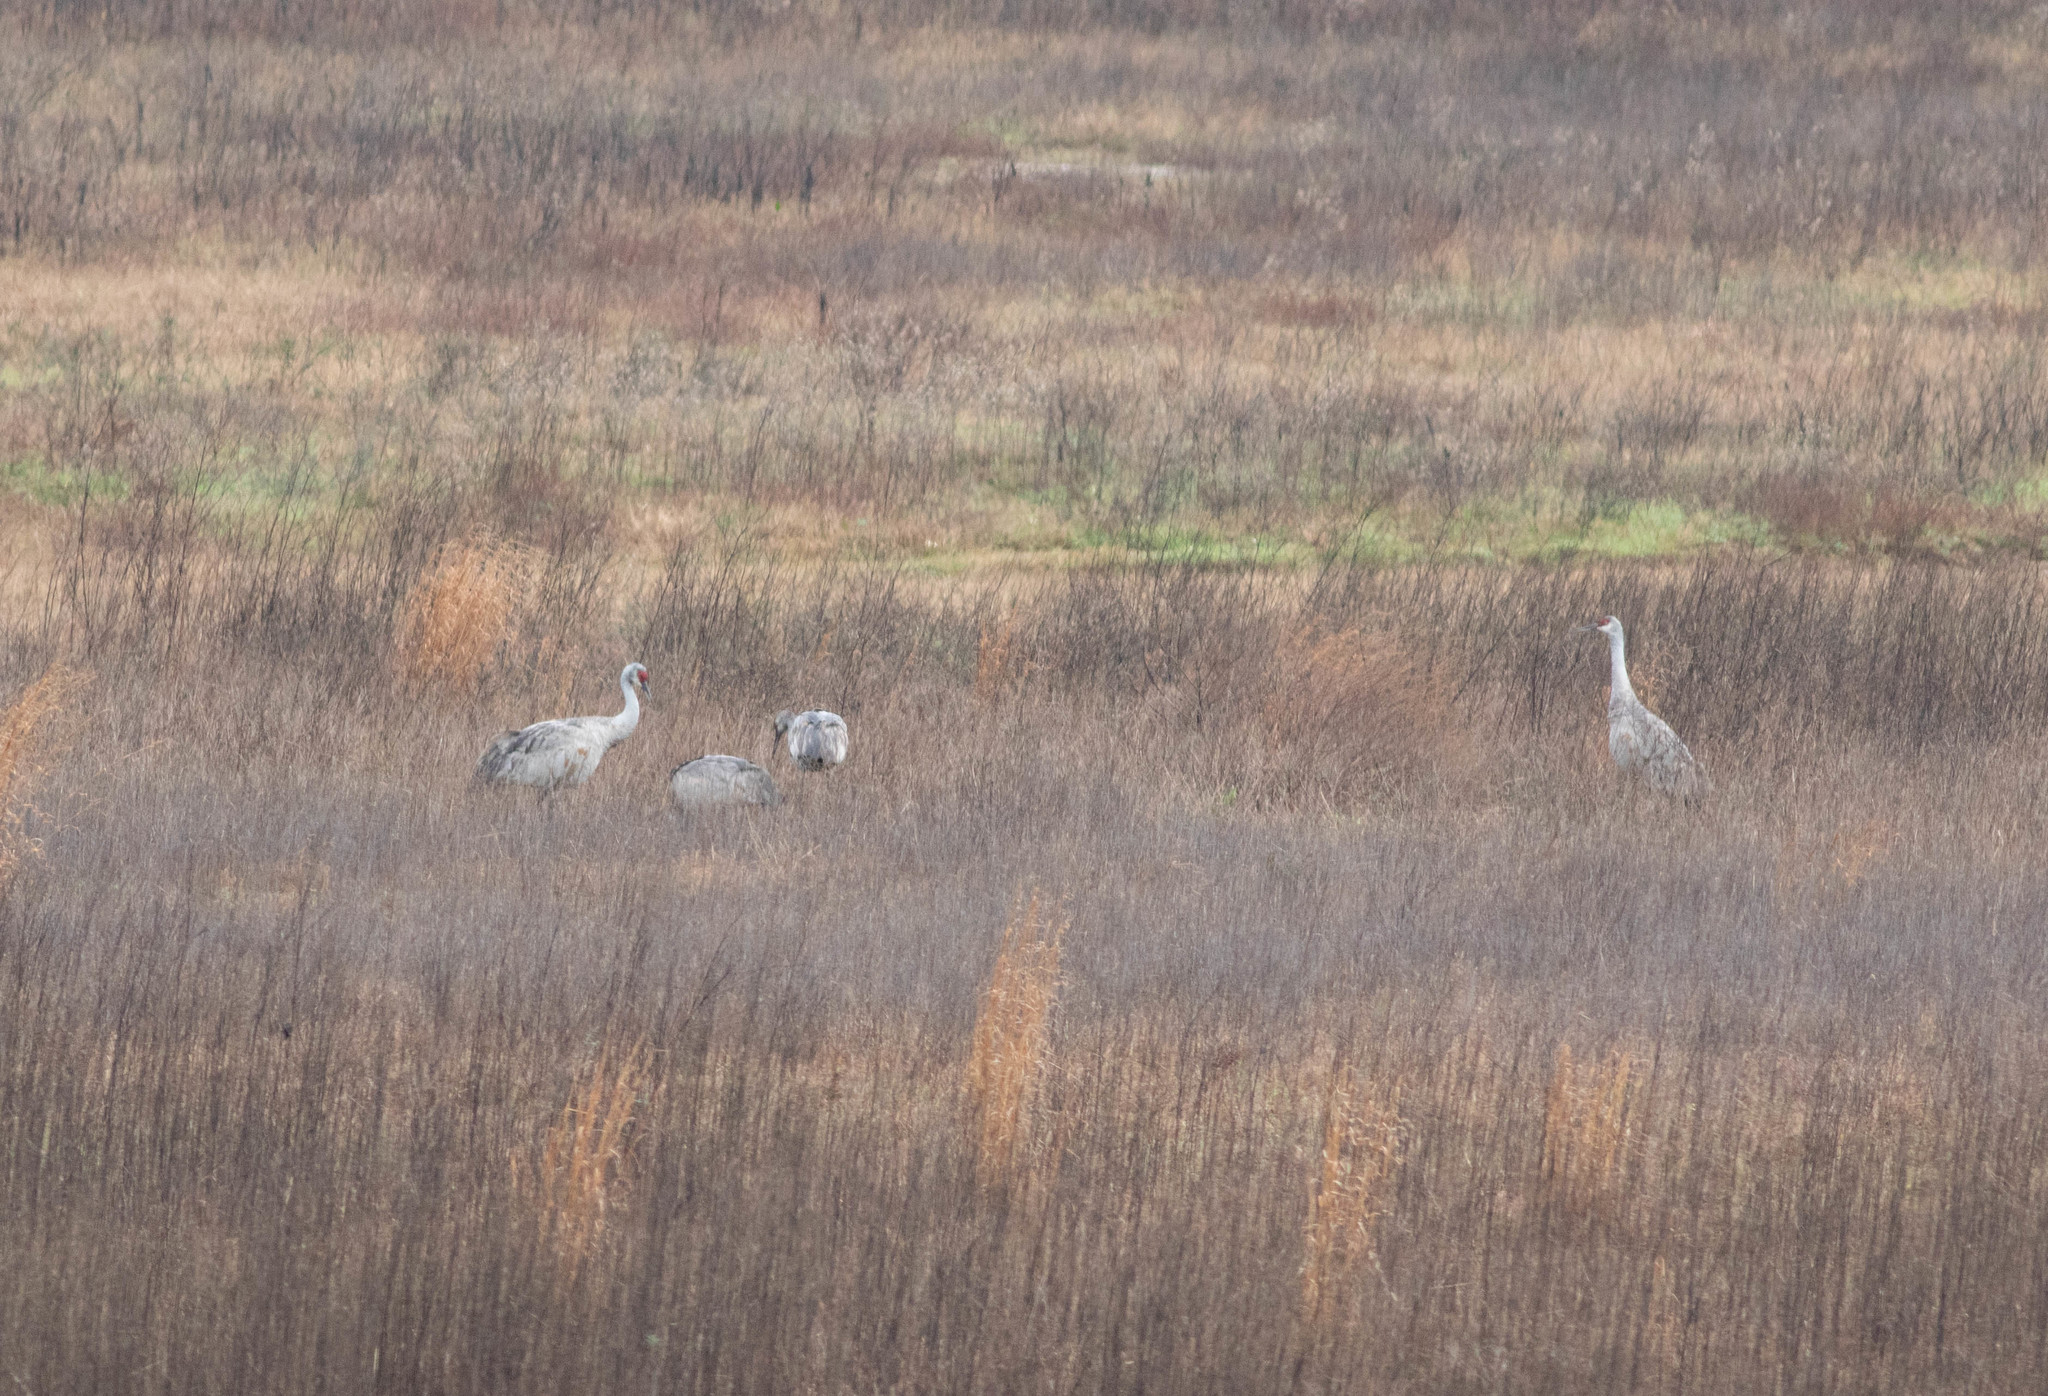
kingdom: Animalia
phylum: Chordata
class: Aves
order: Gruiformes
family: Gruidae
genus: Grus
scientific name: Grus canadensis
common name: Sandhill crane
